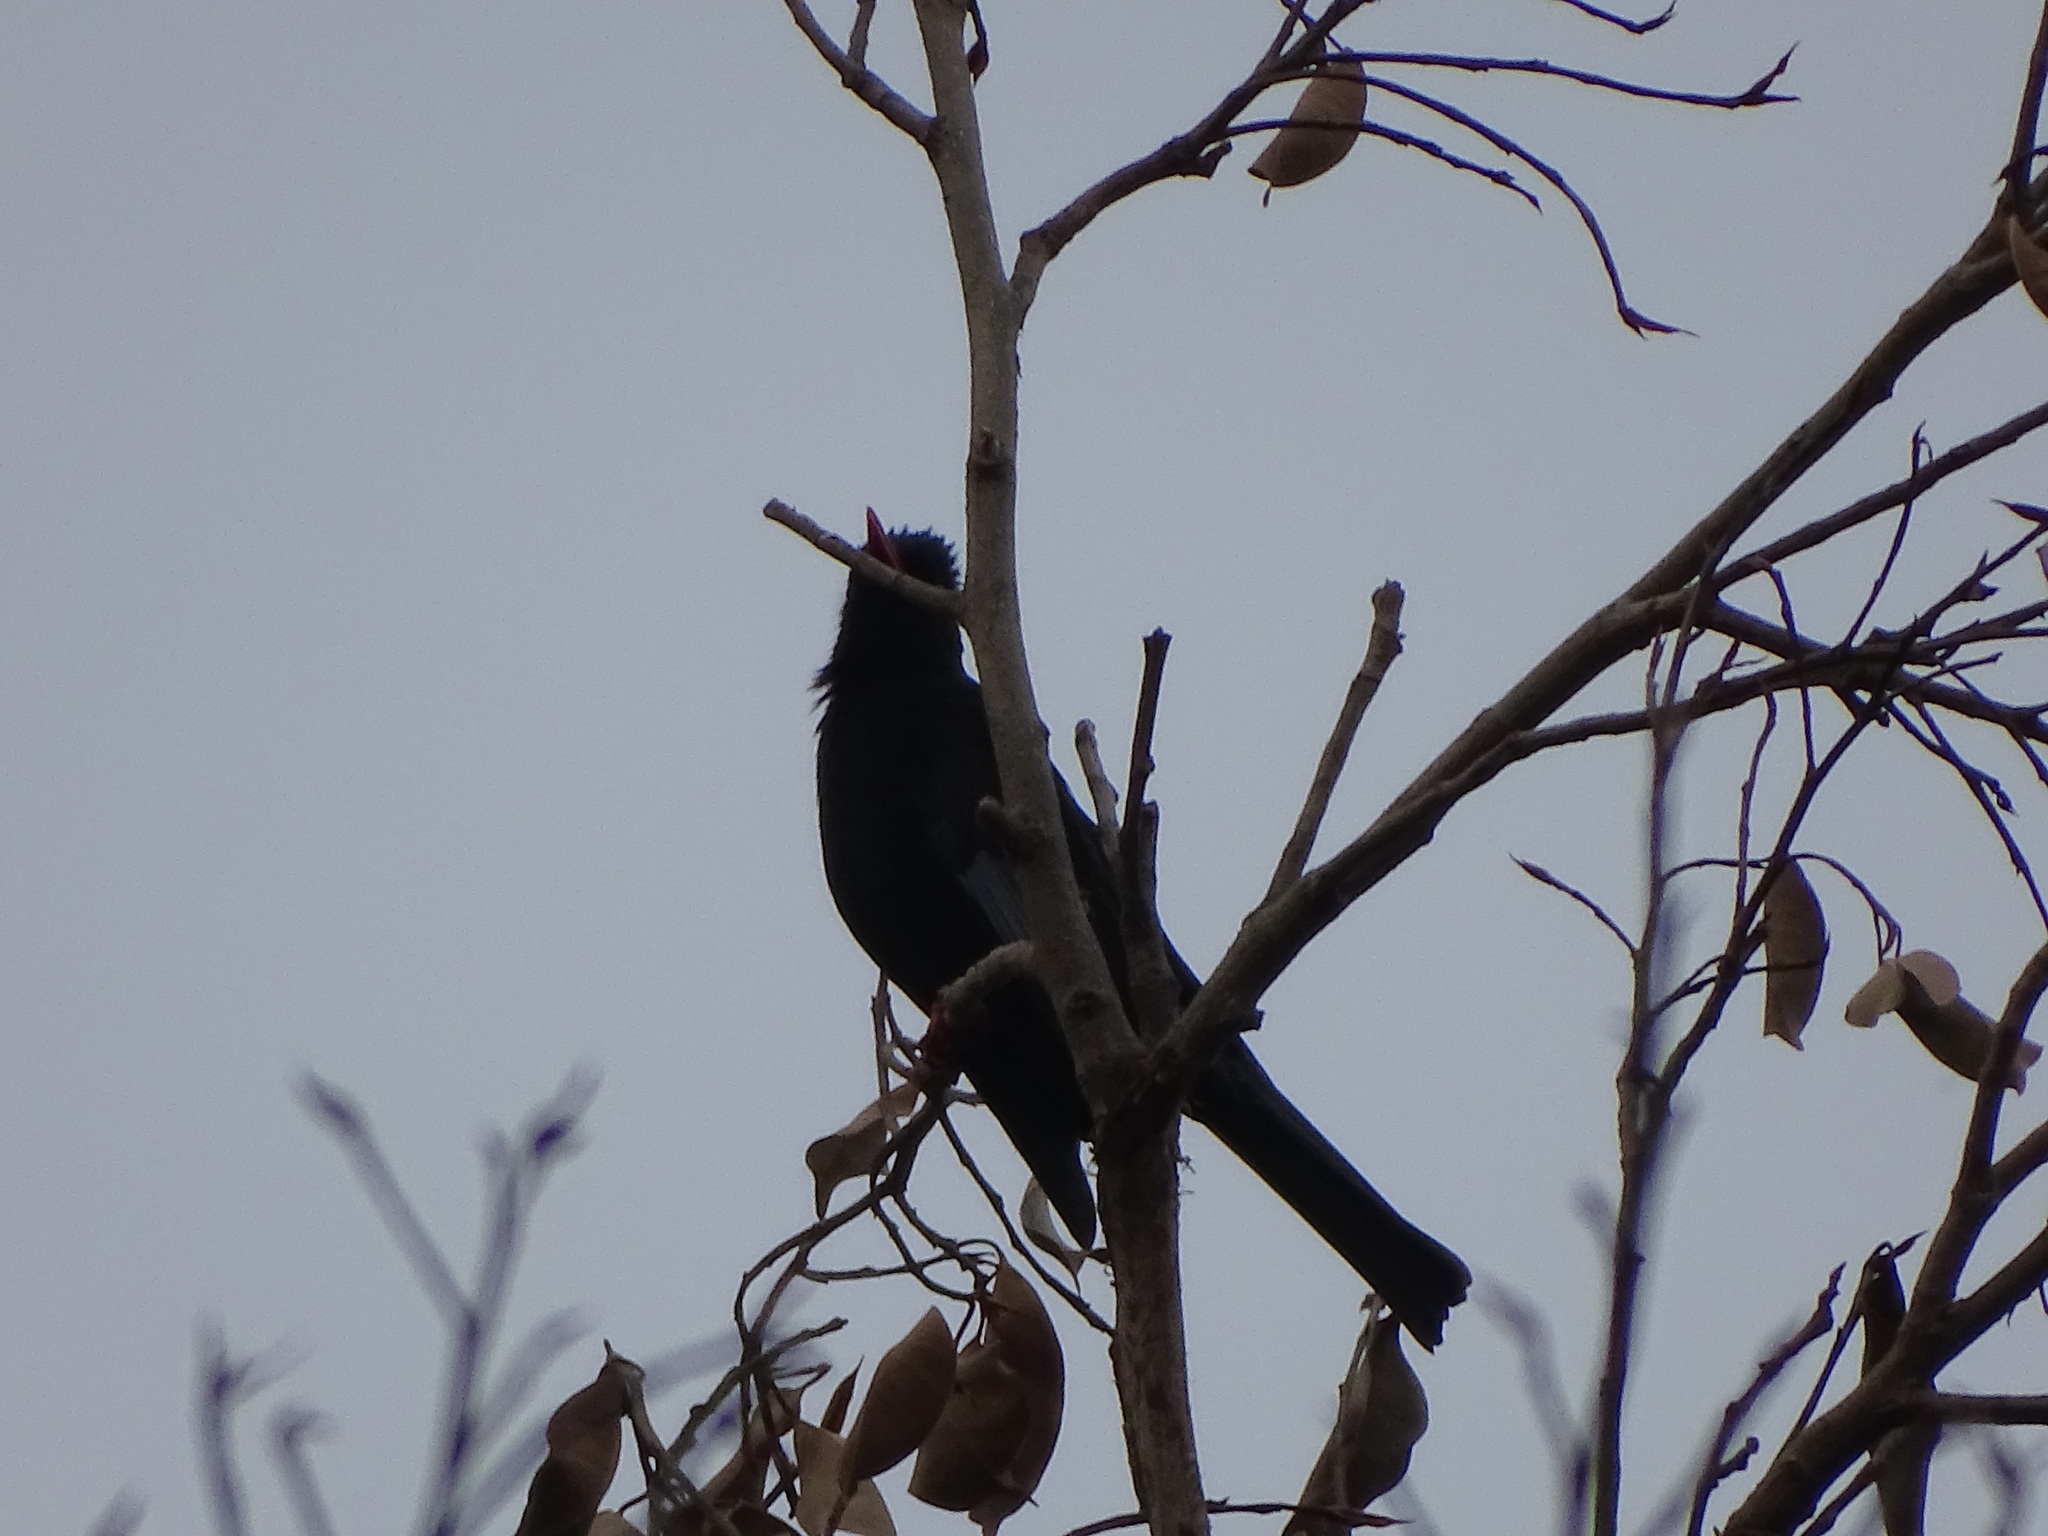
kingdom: Animalia
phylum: Chordata
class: Aves
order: Passeriformes
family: Pycnonotidae
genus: Hypsipetes
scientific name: Hypsipetes leucocephalus
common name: Black bulbul
